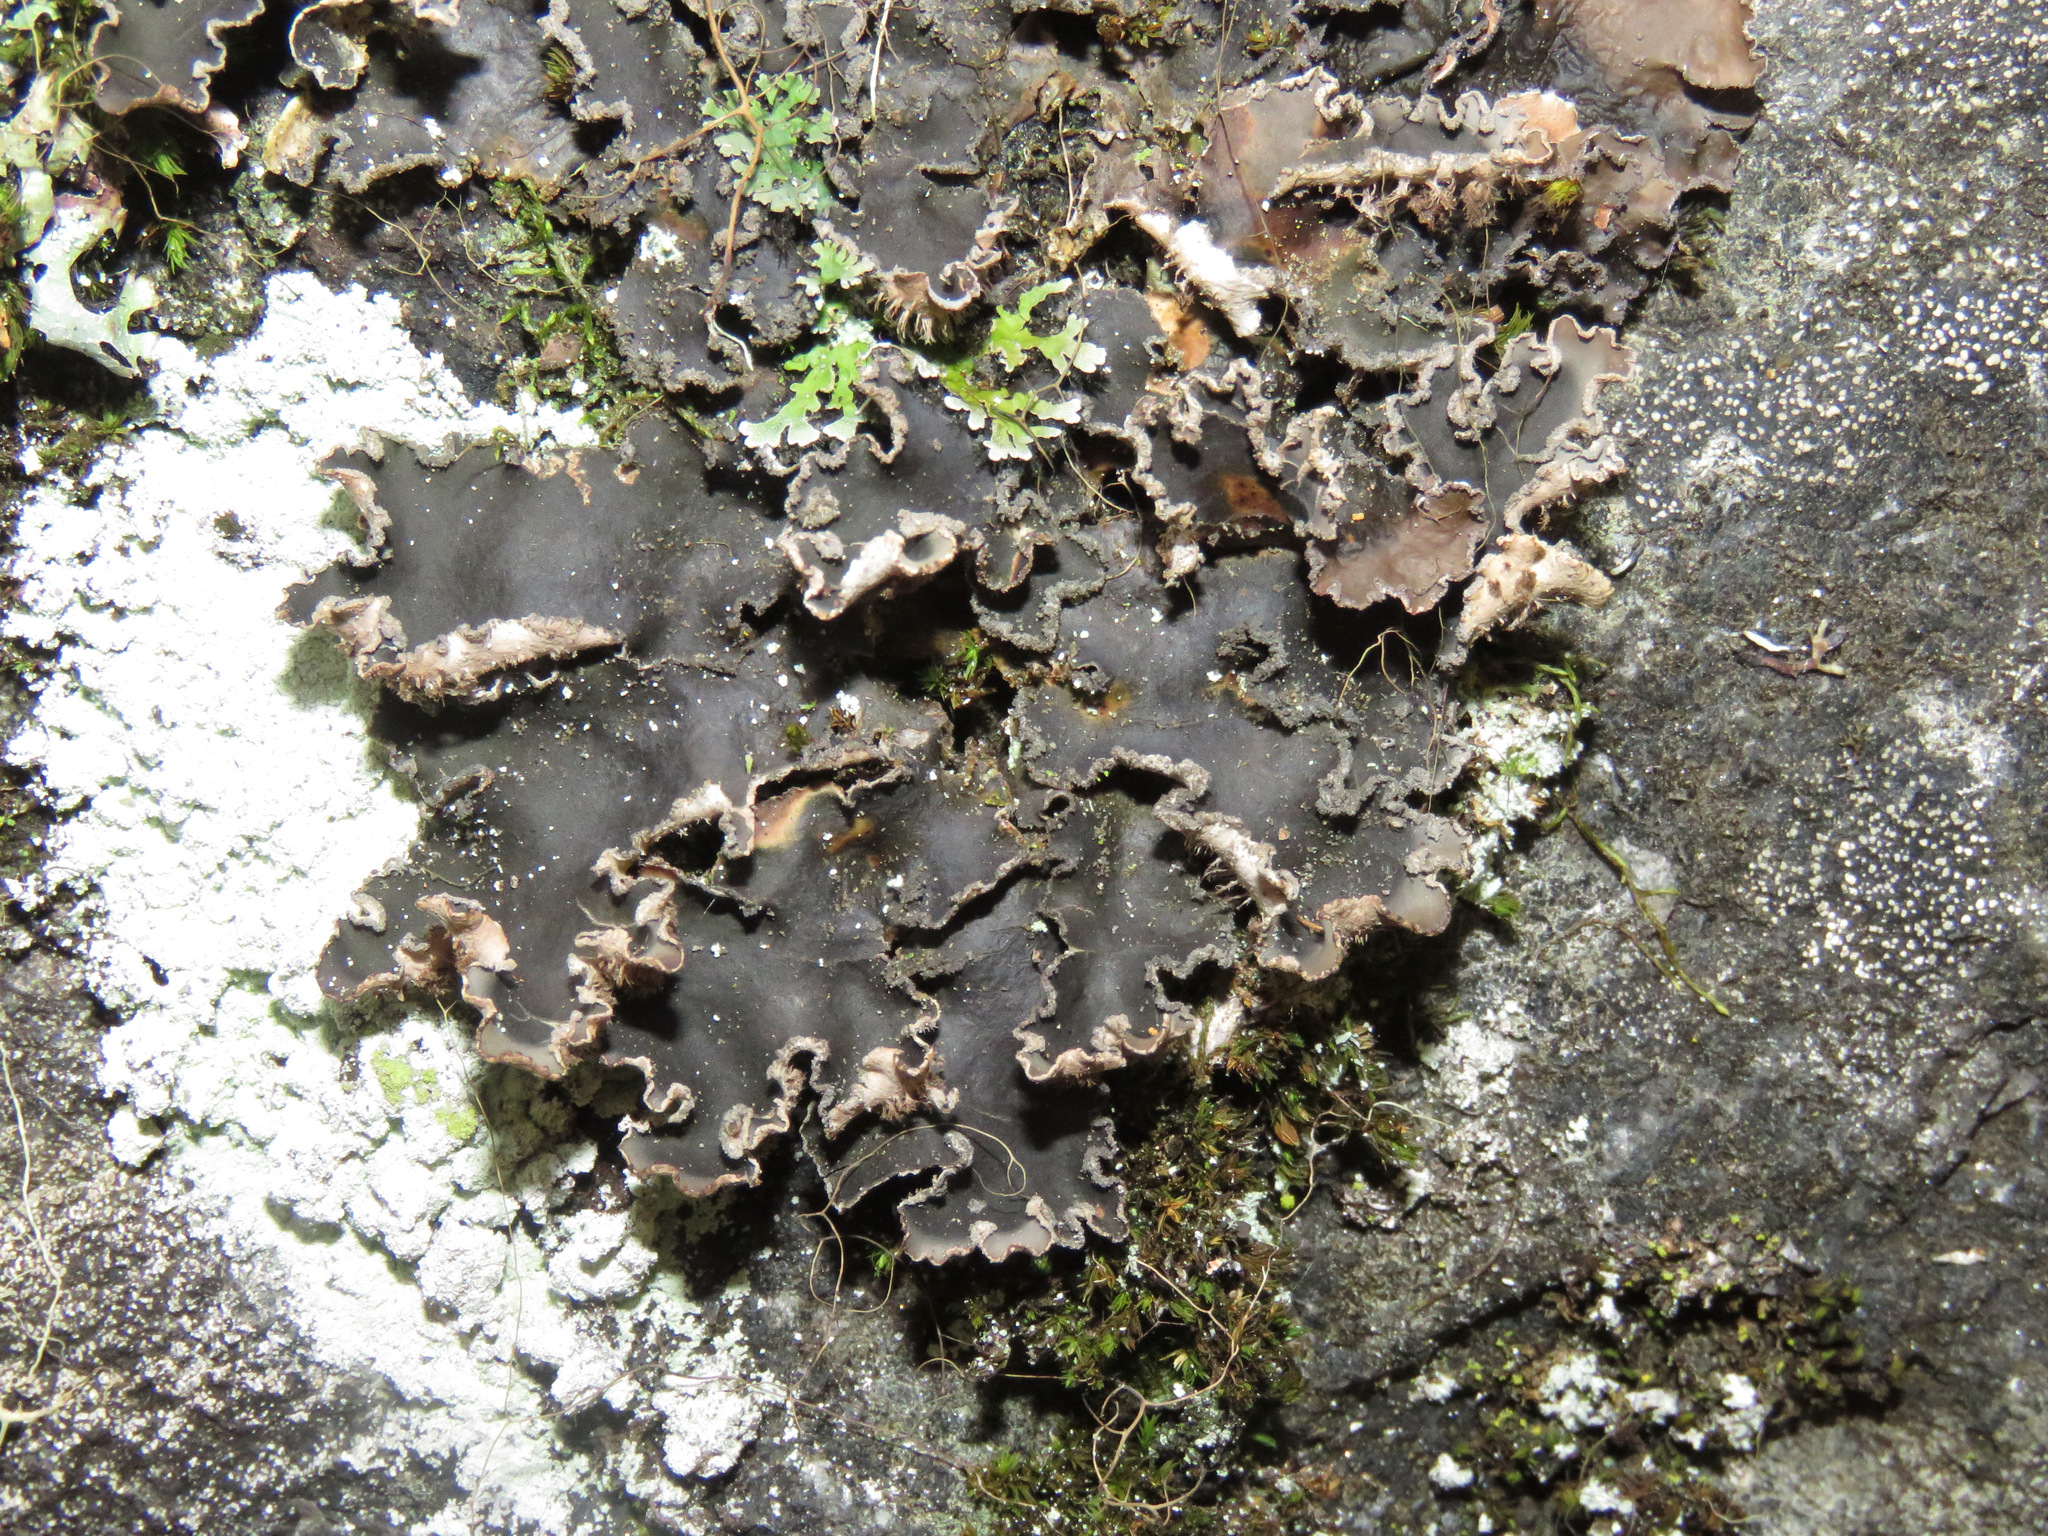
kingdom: Fungi
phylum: Ascomycota
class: Lecanoromycetes
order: Peltigerales
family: Peltigeraceae
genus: Peltigera
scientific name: Peltigera collina
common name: Gritty tree pelt lichen
